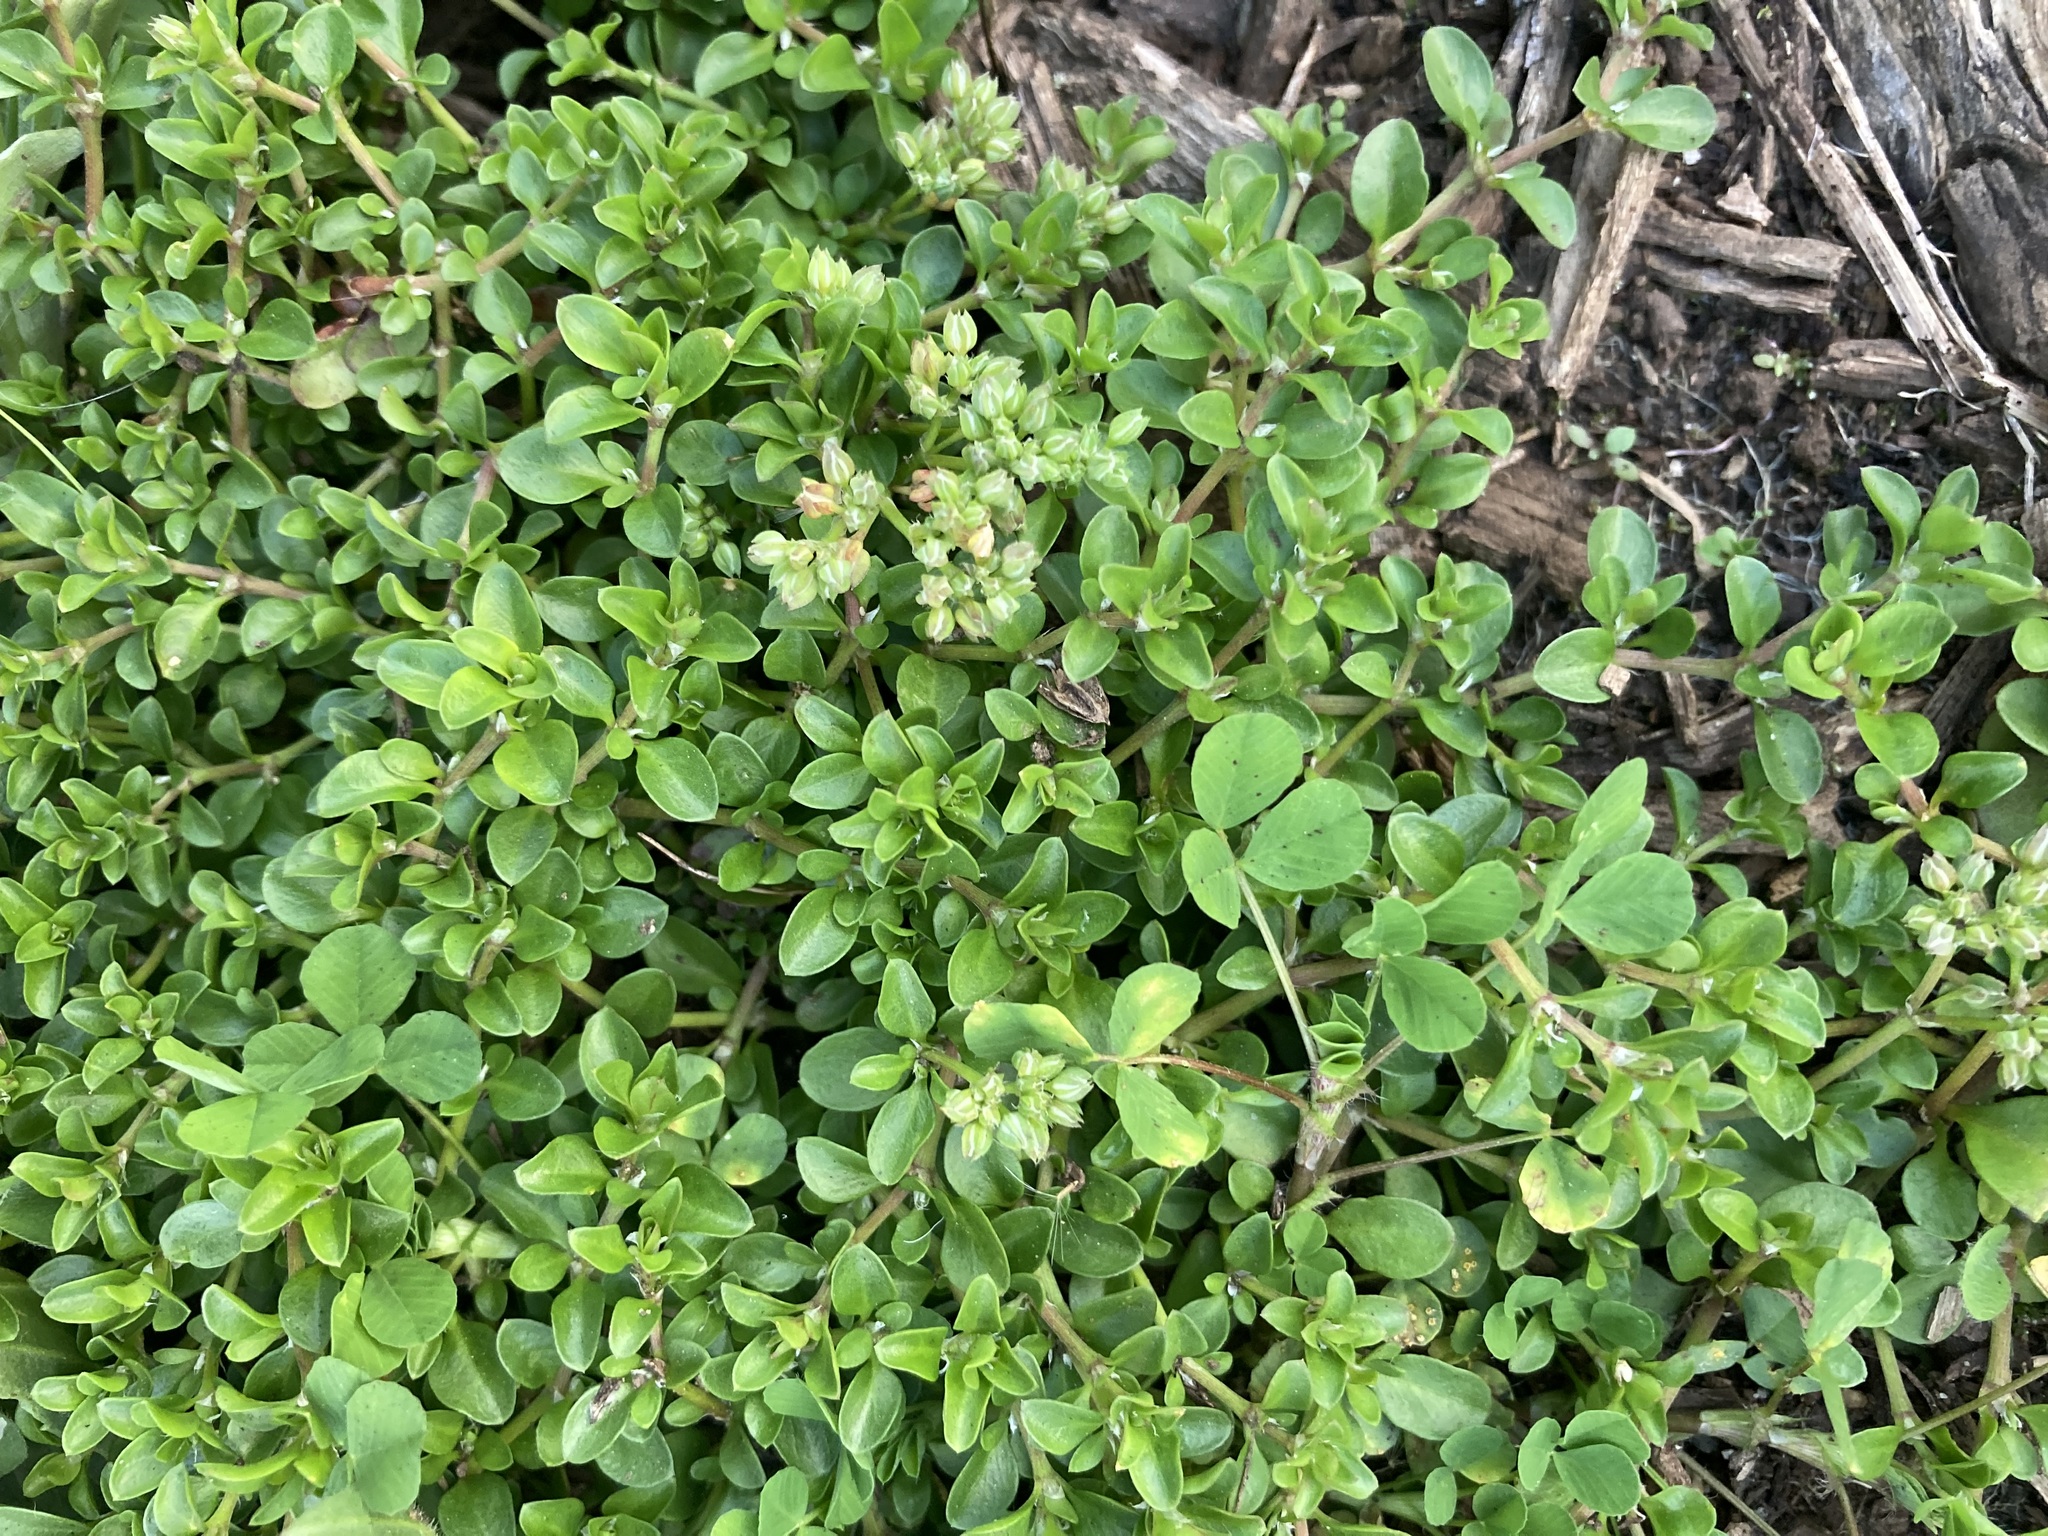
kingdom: Plantae
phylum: Tracheophyta
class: Magnoliopsida
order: Caryophyllales
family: Caryophyllaceae
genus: Polycarpon
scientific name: Polycarpon tetraphyllum
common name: Four-leaved all-seed
